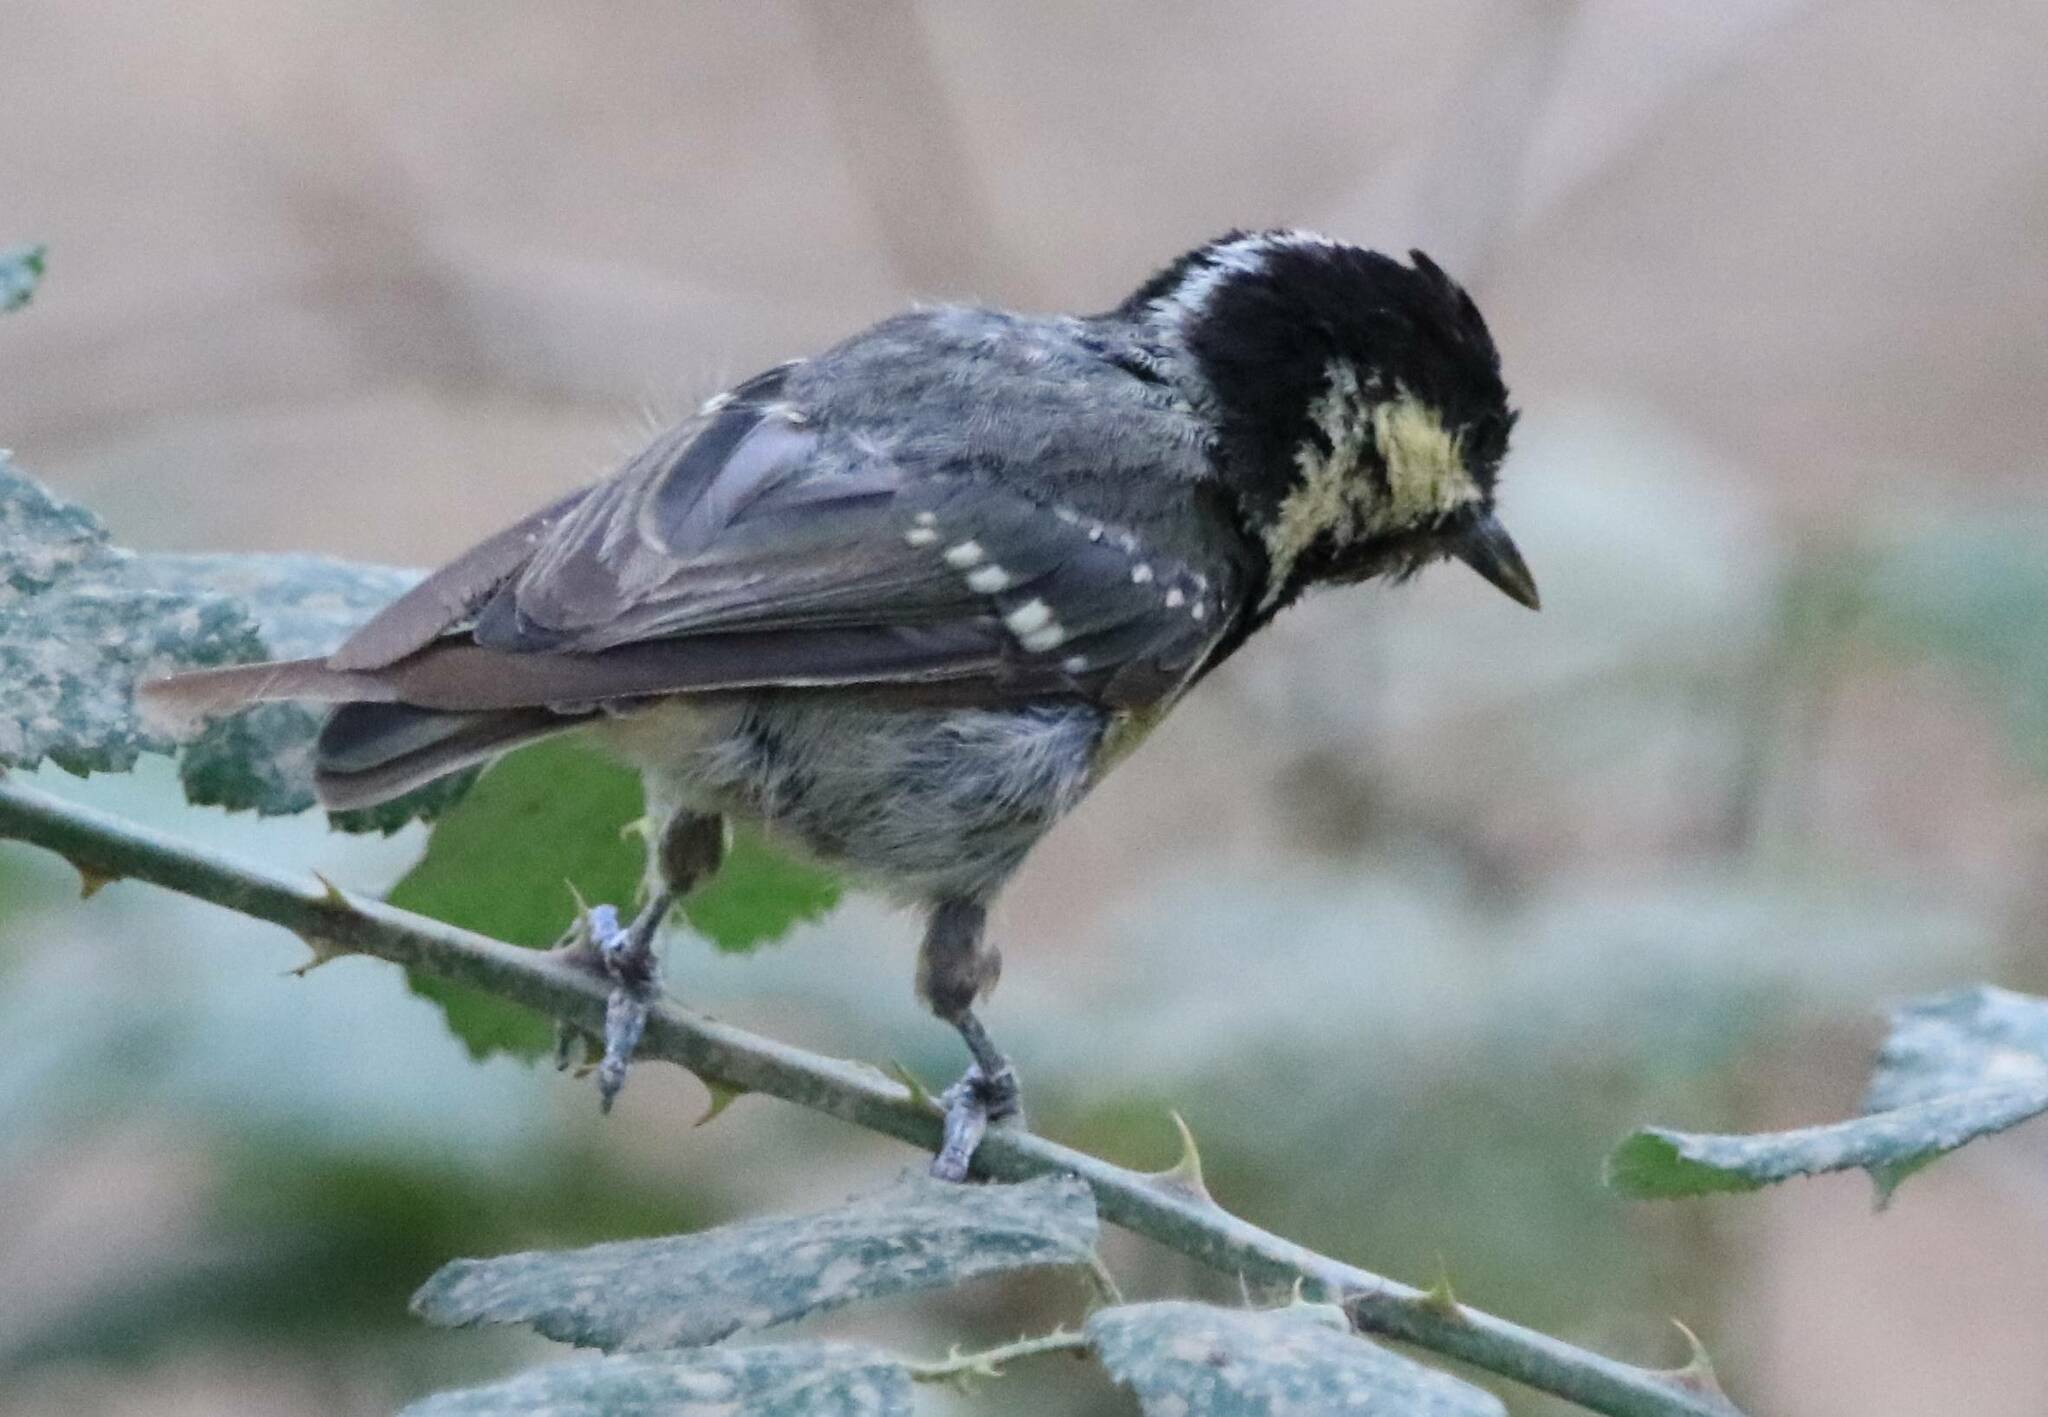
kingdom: Animalia
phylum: Chordata
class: Aves
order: Passeriformes
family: Paridae
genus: Periparus
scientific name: Periparus ater
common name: Coal tit
